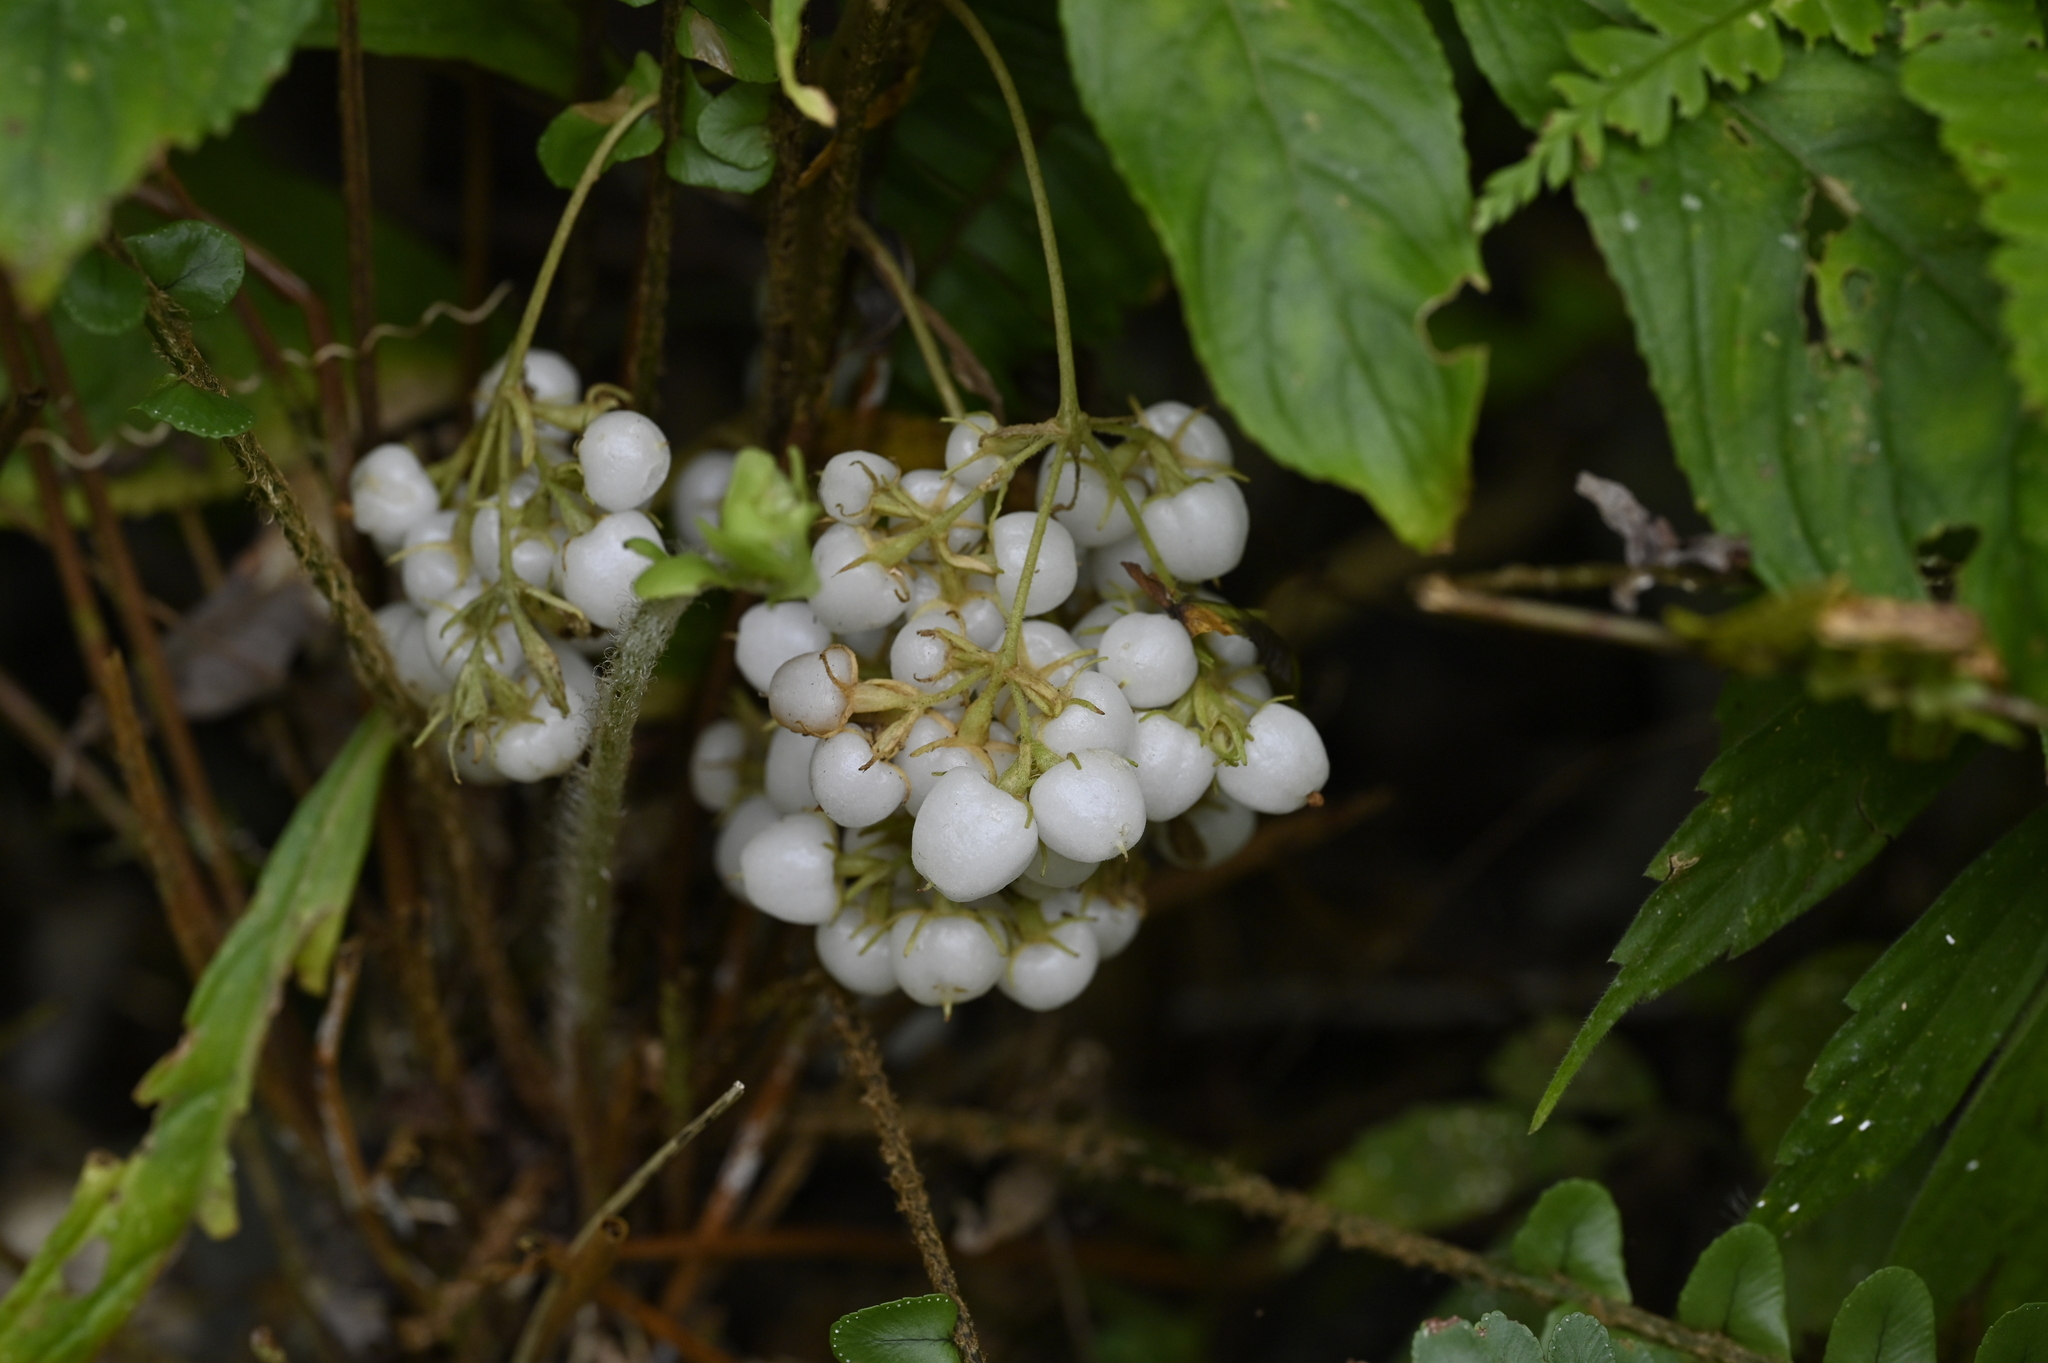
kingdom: Plantae
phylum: Tracheophyta
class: Magnoliopsida
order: Lamiales
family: Gesneriaceae
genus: Rhynchotechum
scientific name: Rhynchotechum discolor
